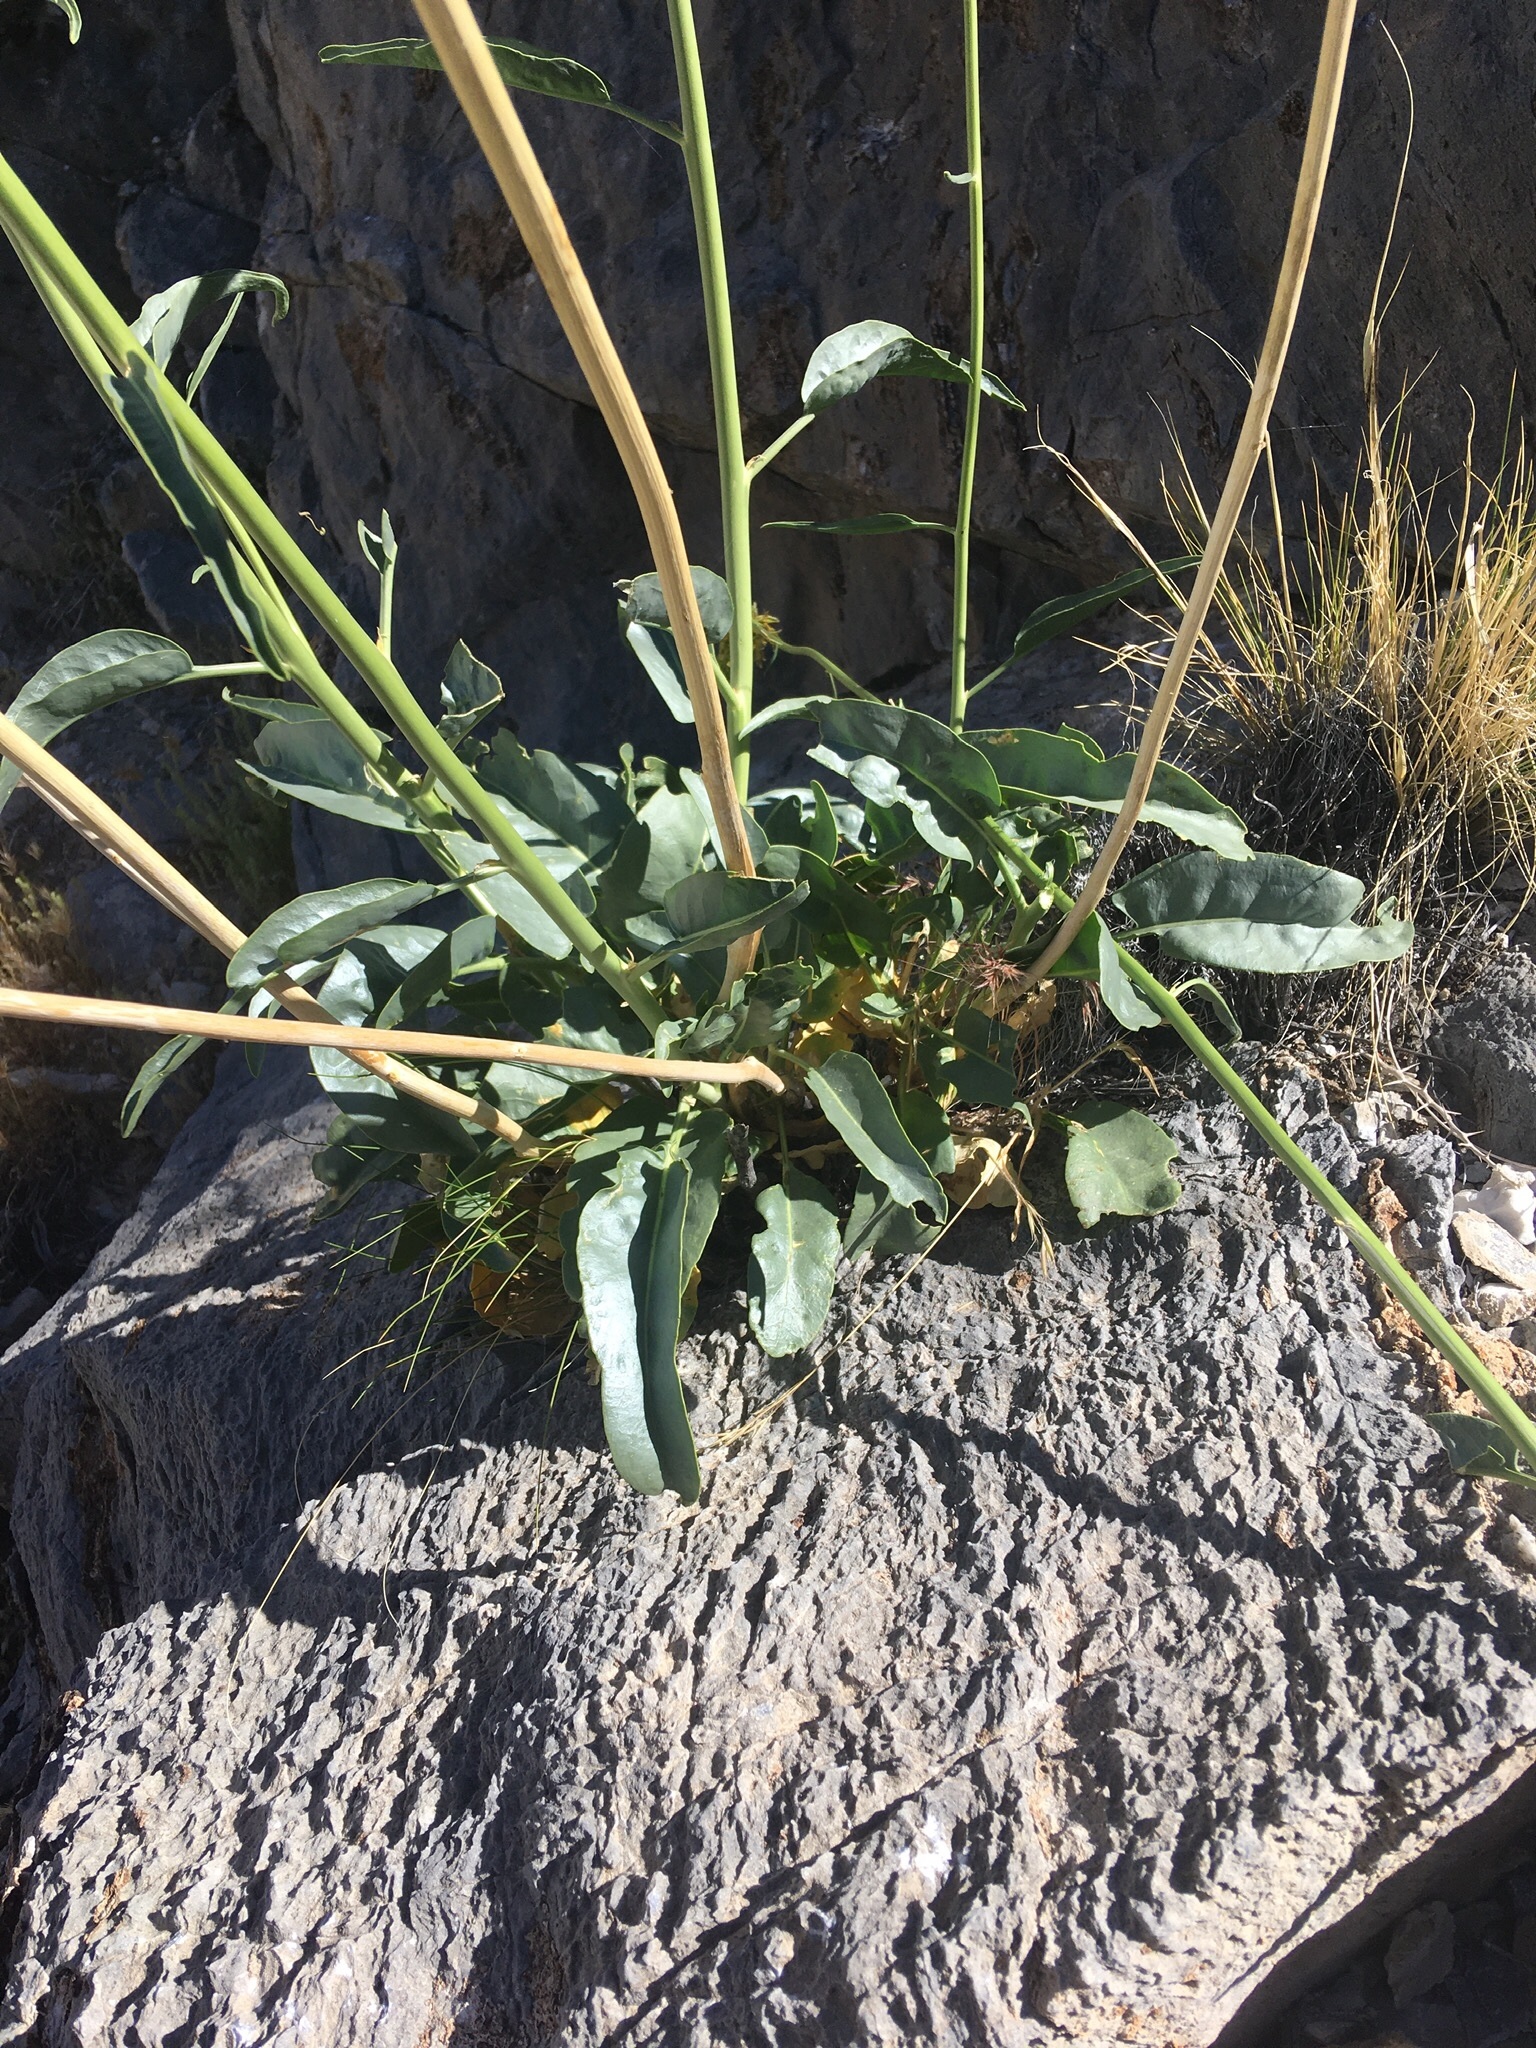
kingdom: Plantae
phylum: Tracheophyta
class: Magnoliopsida
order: Brassicales
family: Brassicaceae
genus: Stanleya
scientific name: Stanleya elata
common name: Panamint prince's plume
